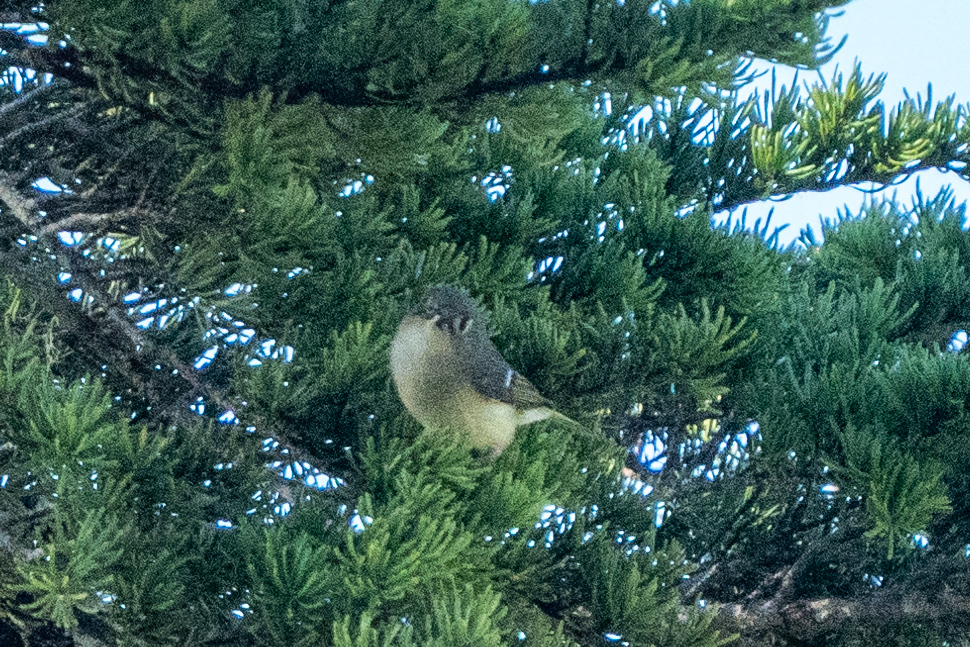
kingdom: Animalia
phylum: Chordata
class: Aves
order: Passeriformes
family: Regulidae
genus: Regulus
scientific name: Regulus calendula
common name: Ruby-crowned kinglet
